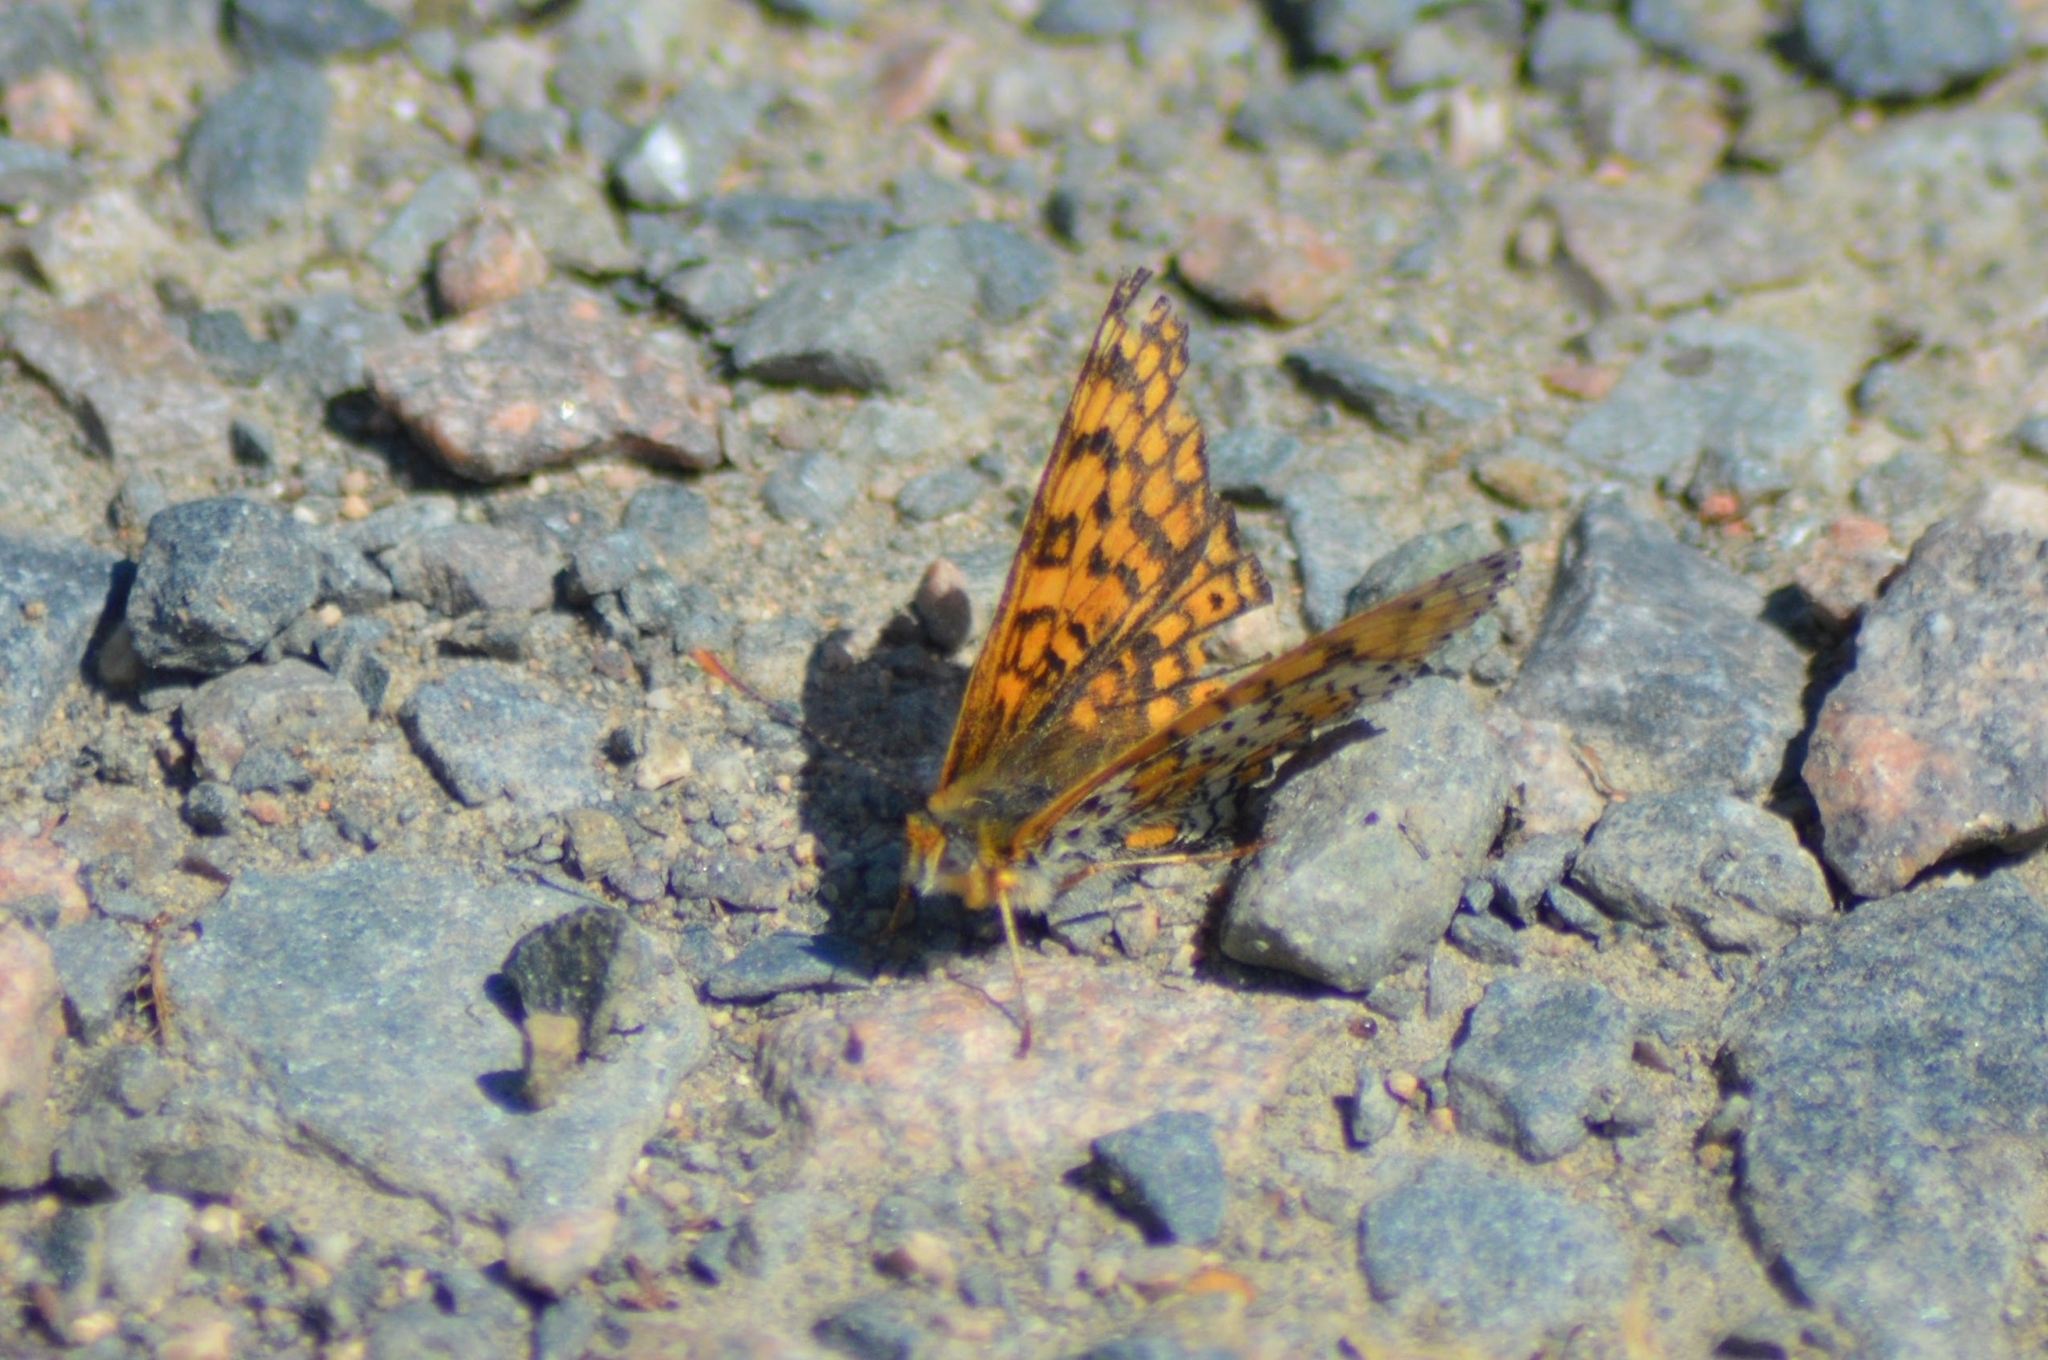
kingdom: Animalia
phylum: Arthropoda
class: Insecta
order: Lepidoptera
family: Nymphalidae
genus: Melitaea
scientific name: Melitaea cinxia
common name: Glanville fritillary
